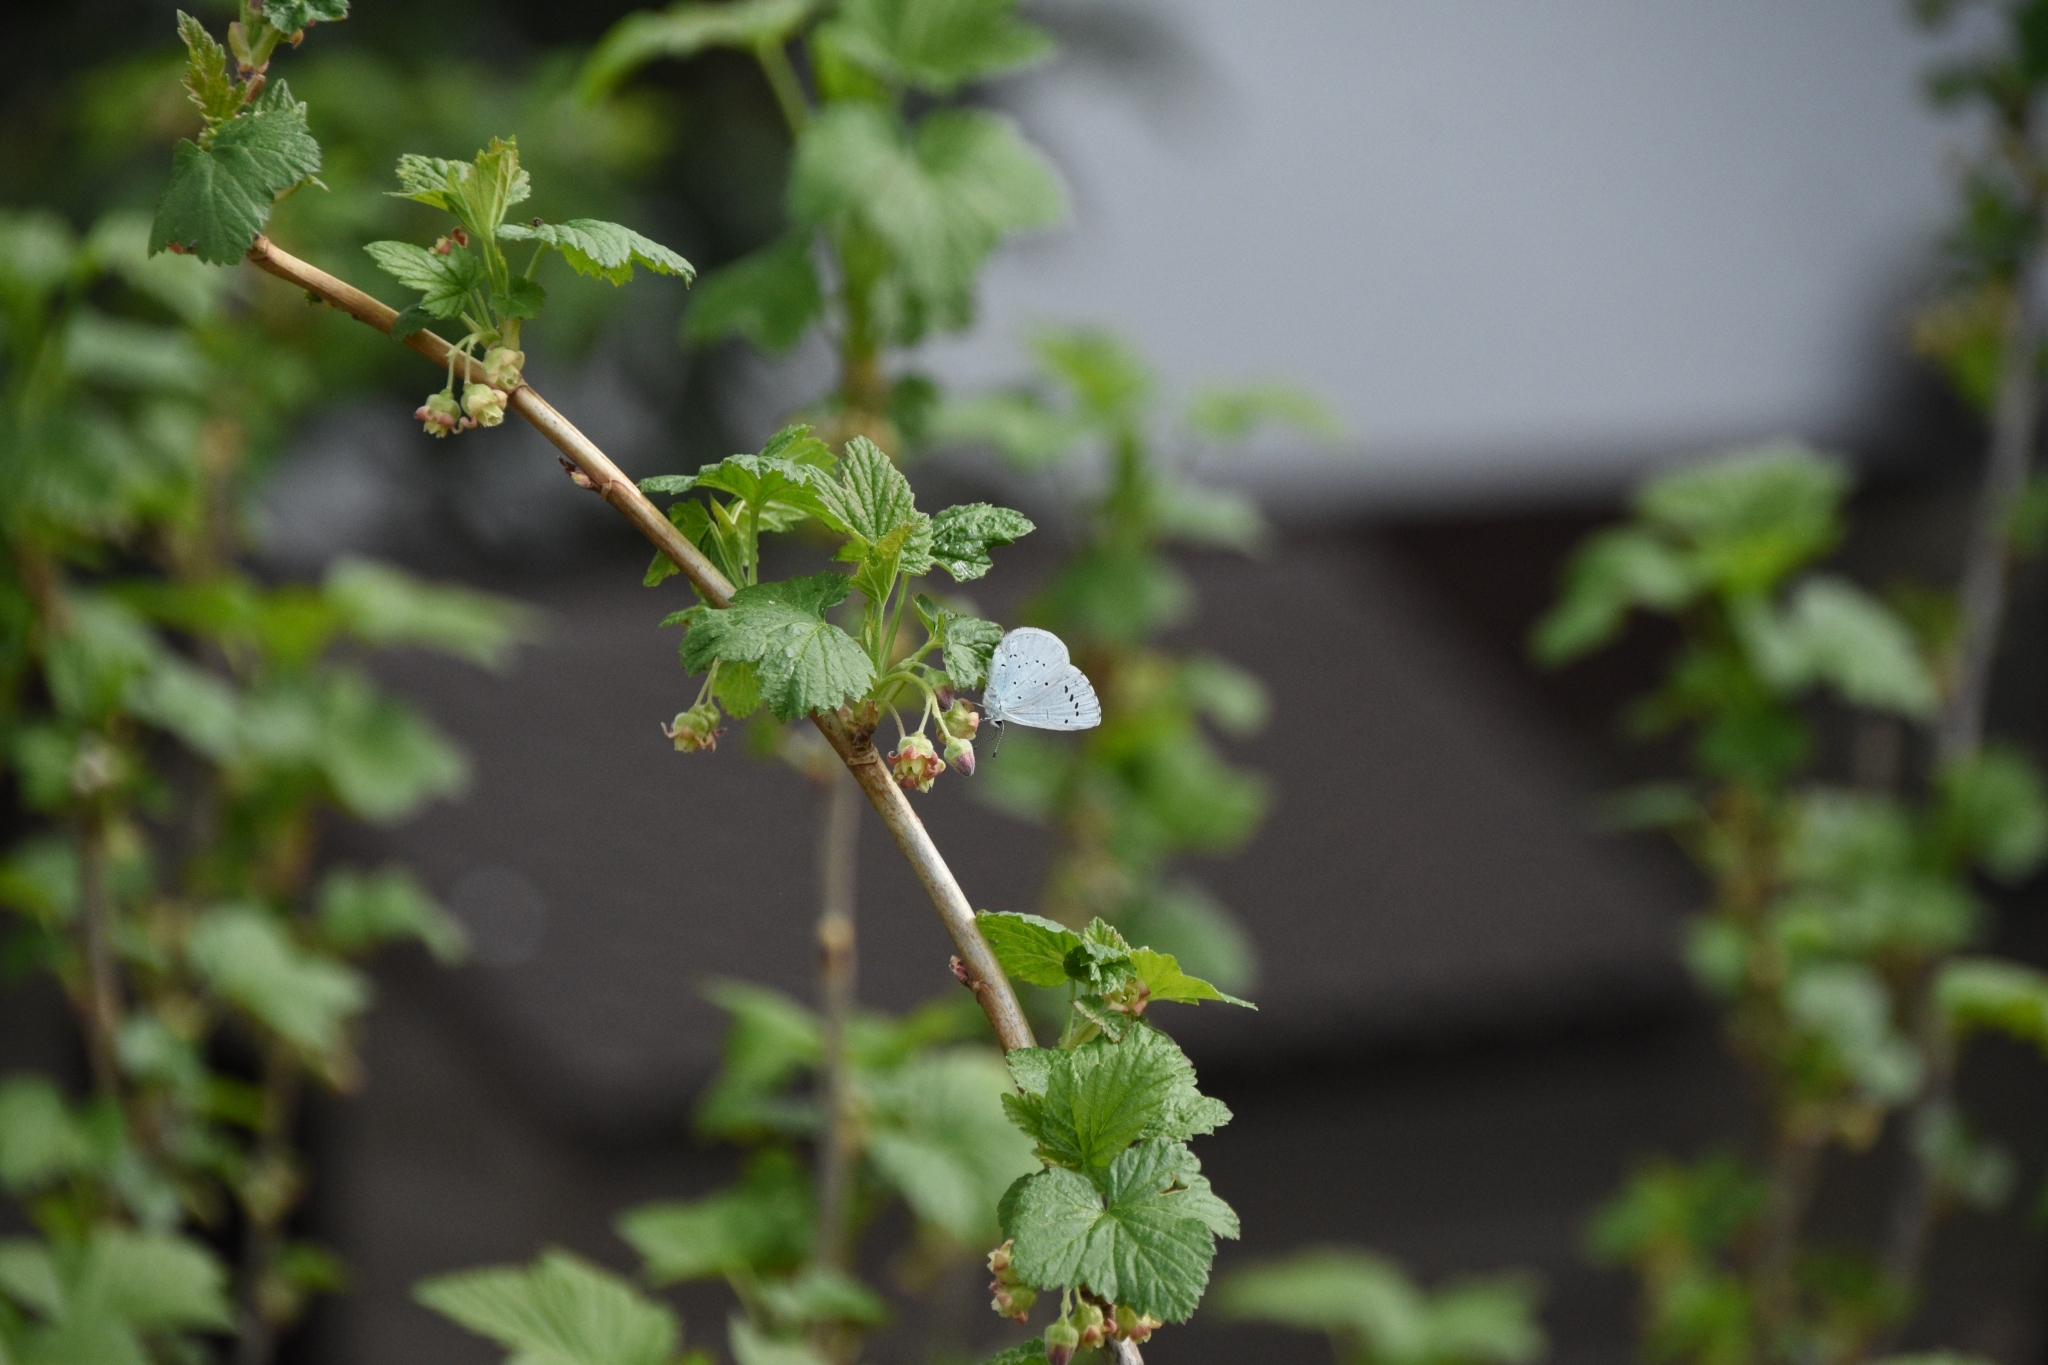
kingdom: Animalia
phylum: Arthropoda
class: Insecta
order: Lepidoptera
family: Lycaenidae
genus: Celastrina
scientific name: Celastrina argiolus
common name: Holly blue
